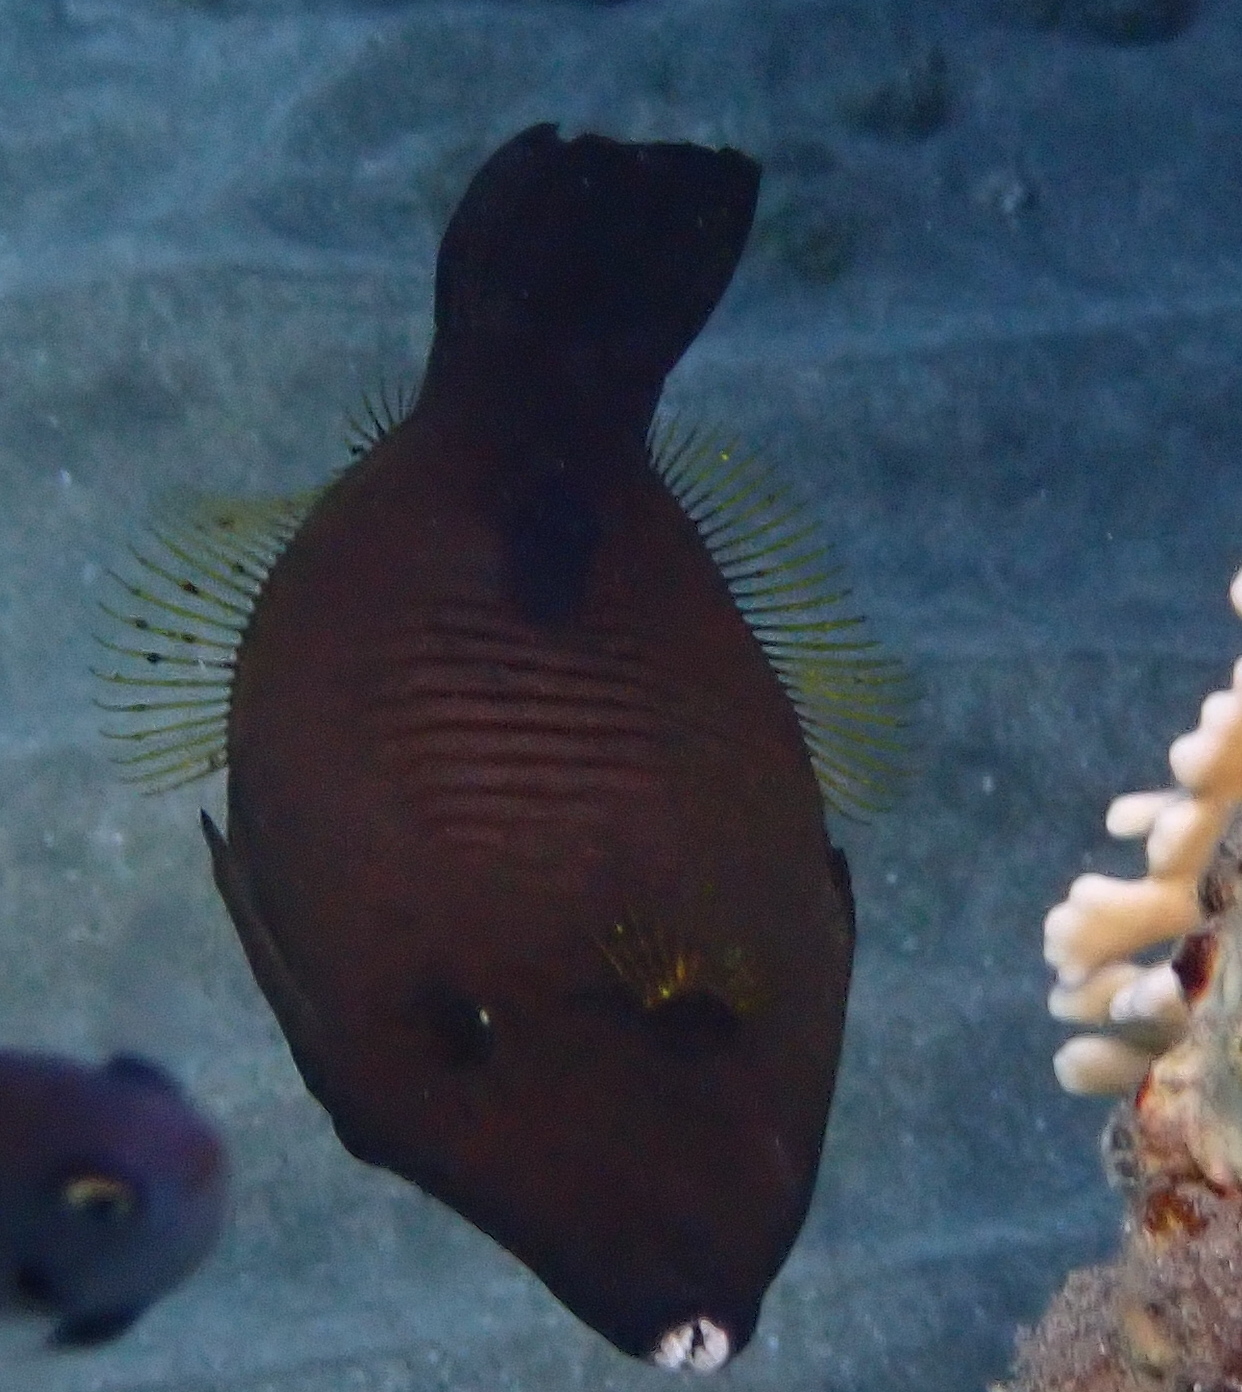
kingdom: Animalia
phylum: Chordata
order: Tetraodontiformes
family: Monacanthidae
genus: Amanses
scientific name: Amanses scopas
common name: Broom filefish
